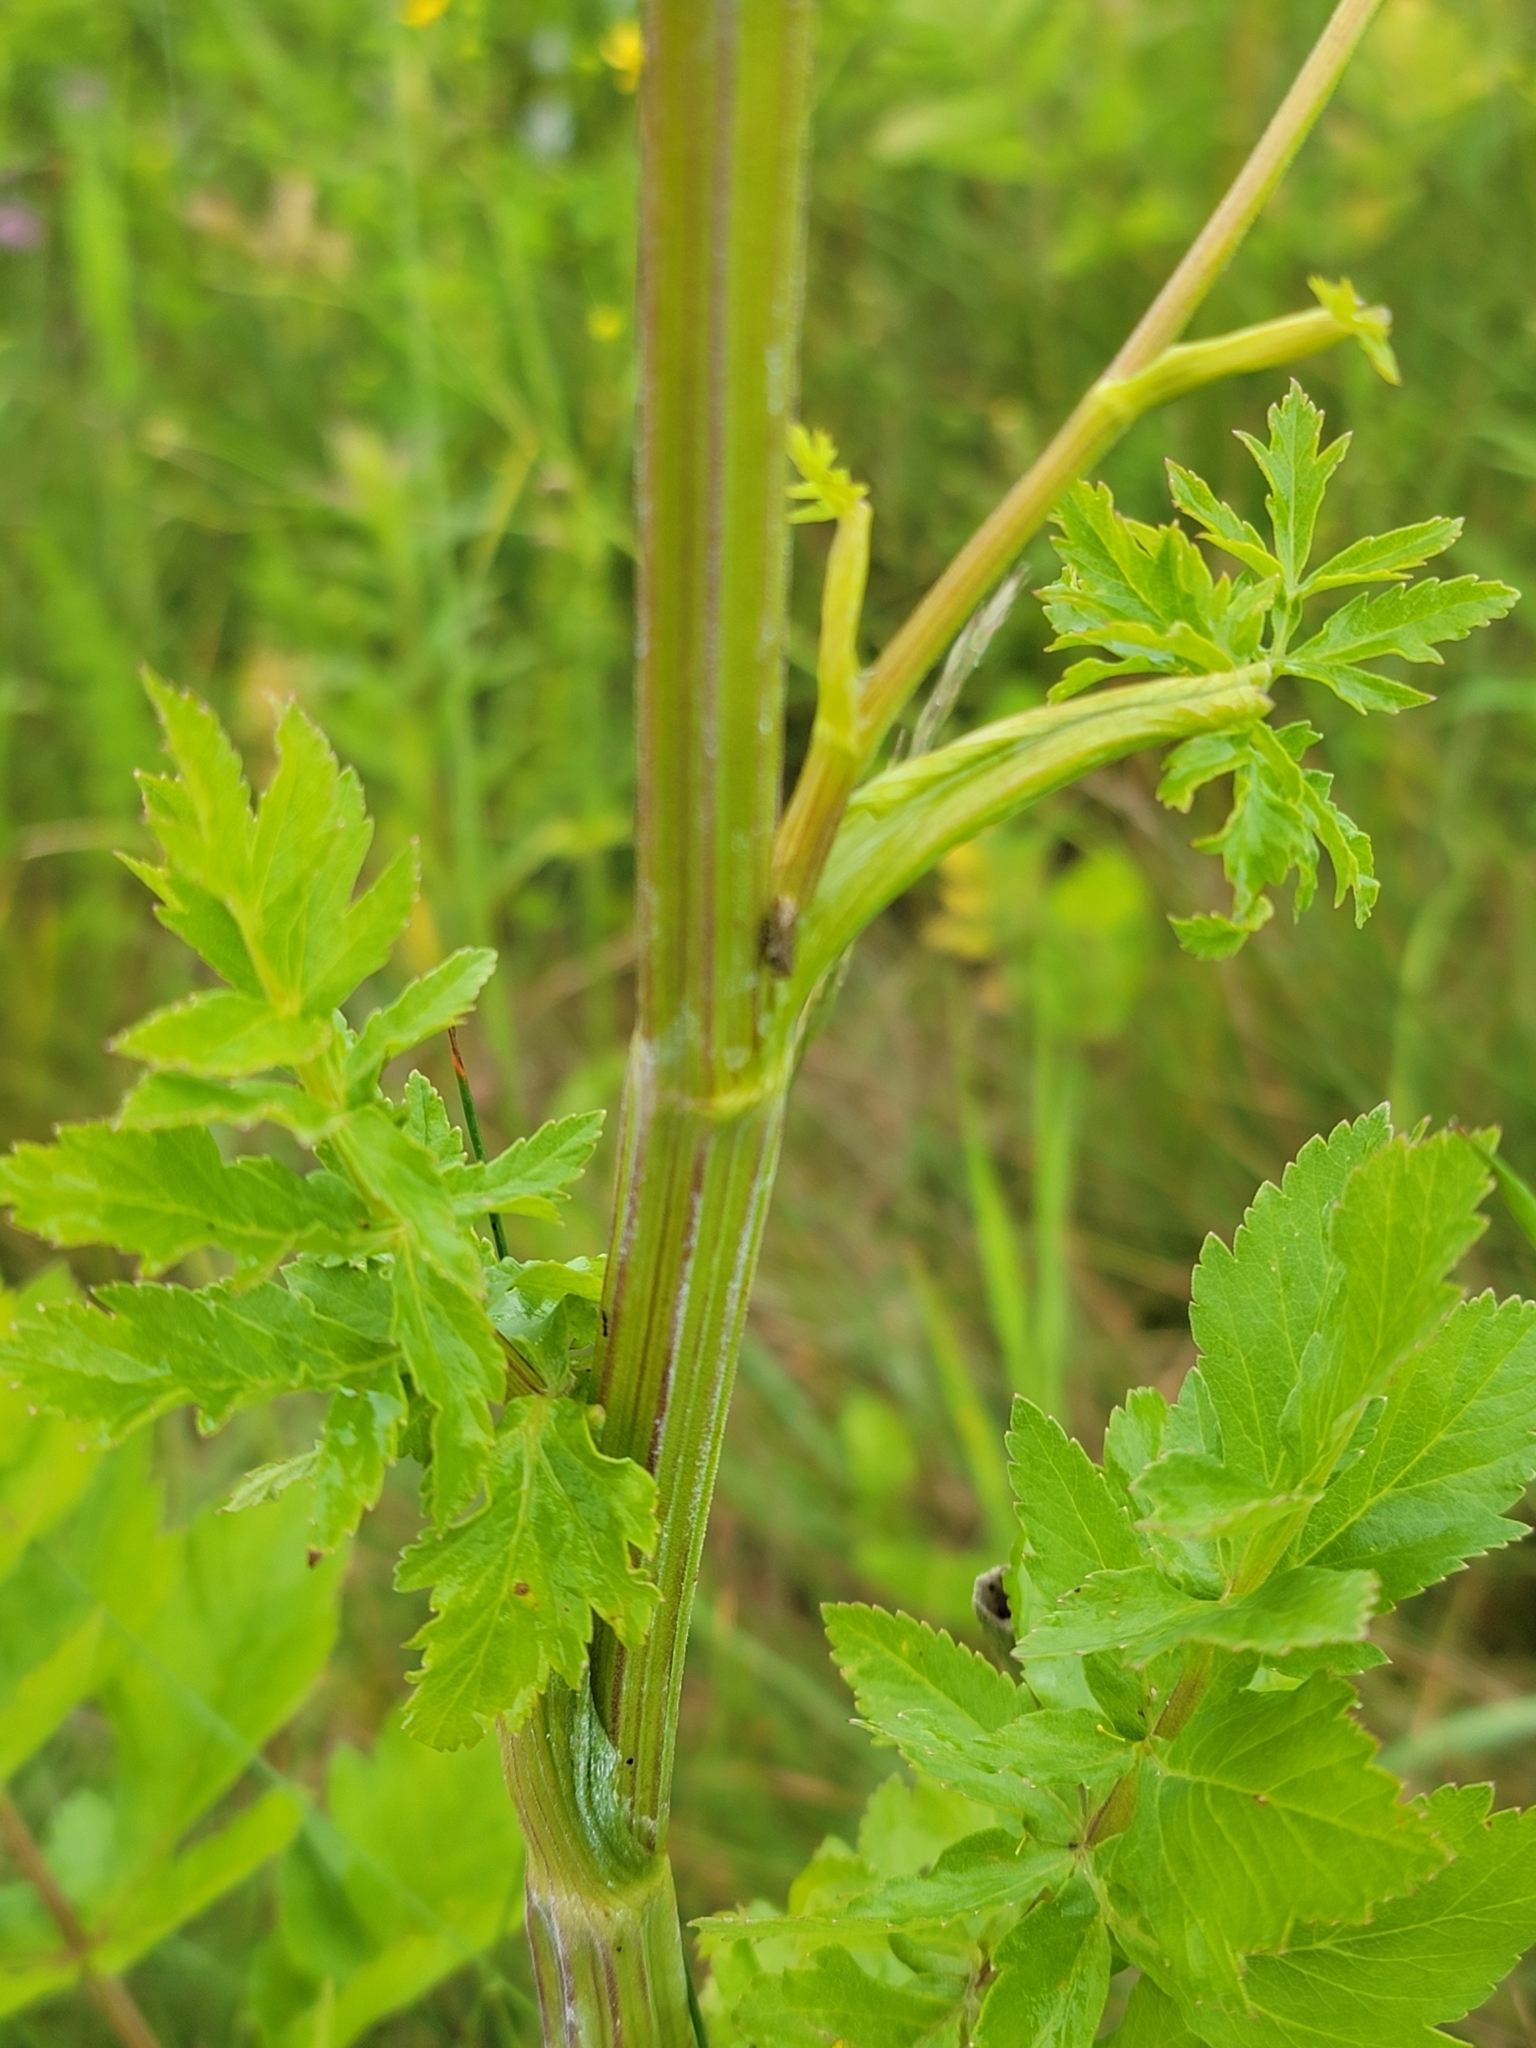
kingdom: Plantae
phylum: Tracheophyta
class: Magnoliopsida
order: Apiales
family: Apiaceae
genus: Pastinaca
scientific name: Pastinaca sativa
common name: Wild parsnip
